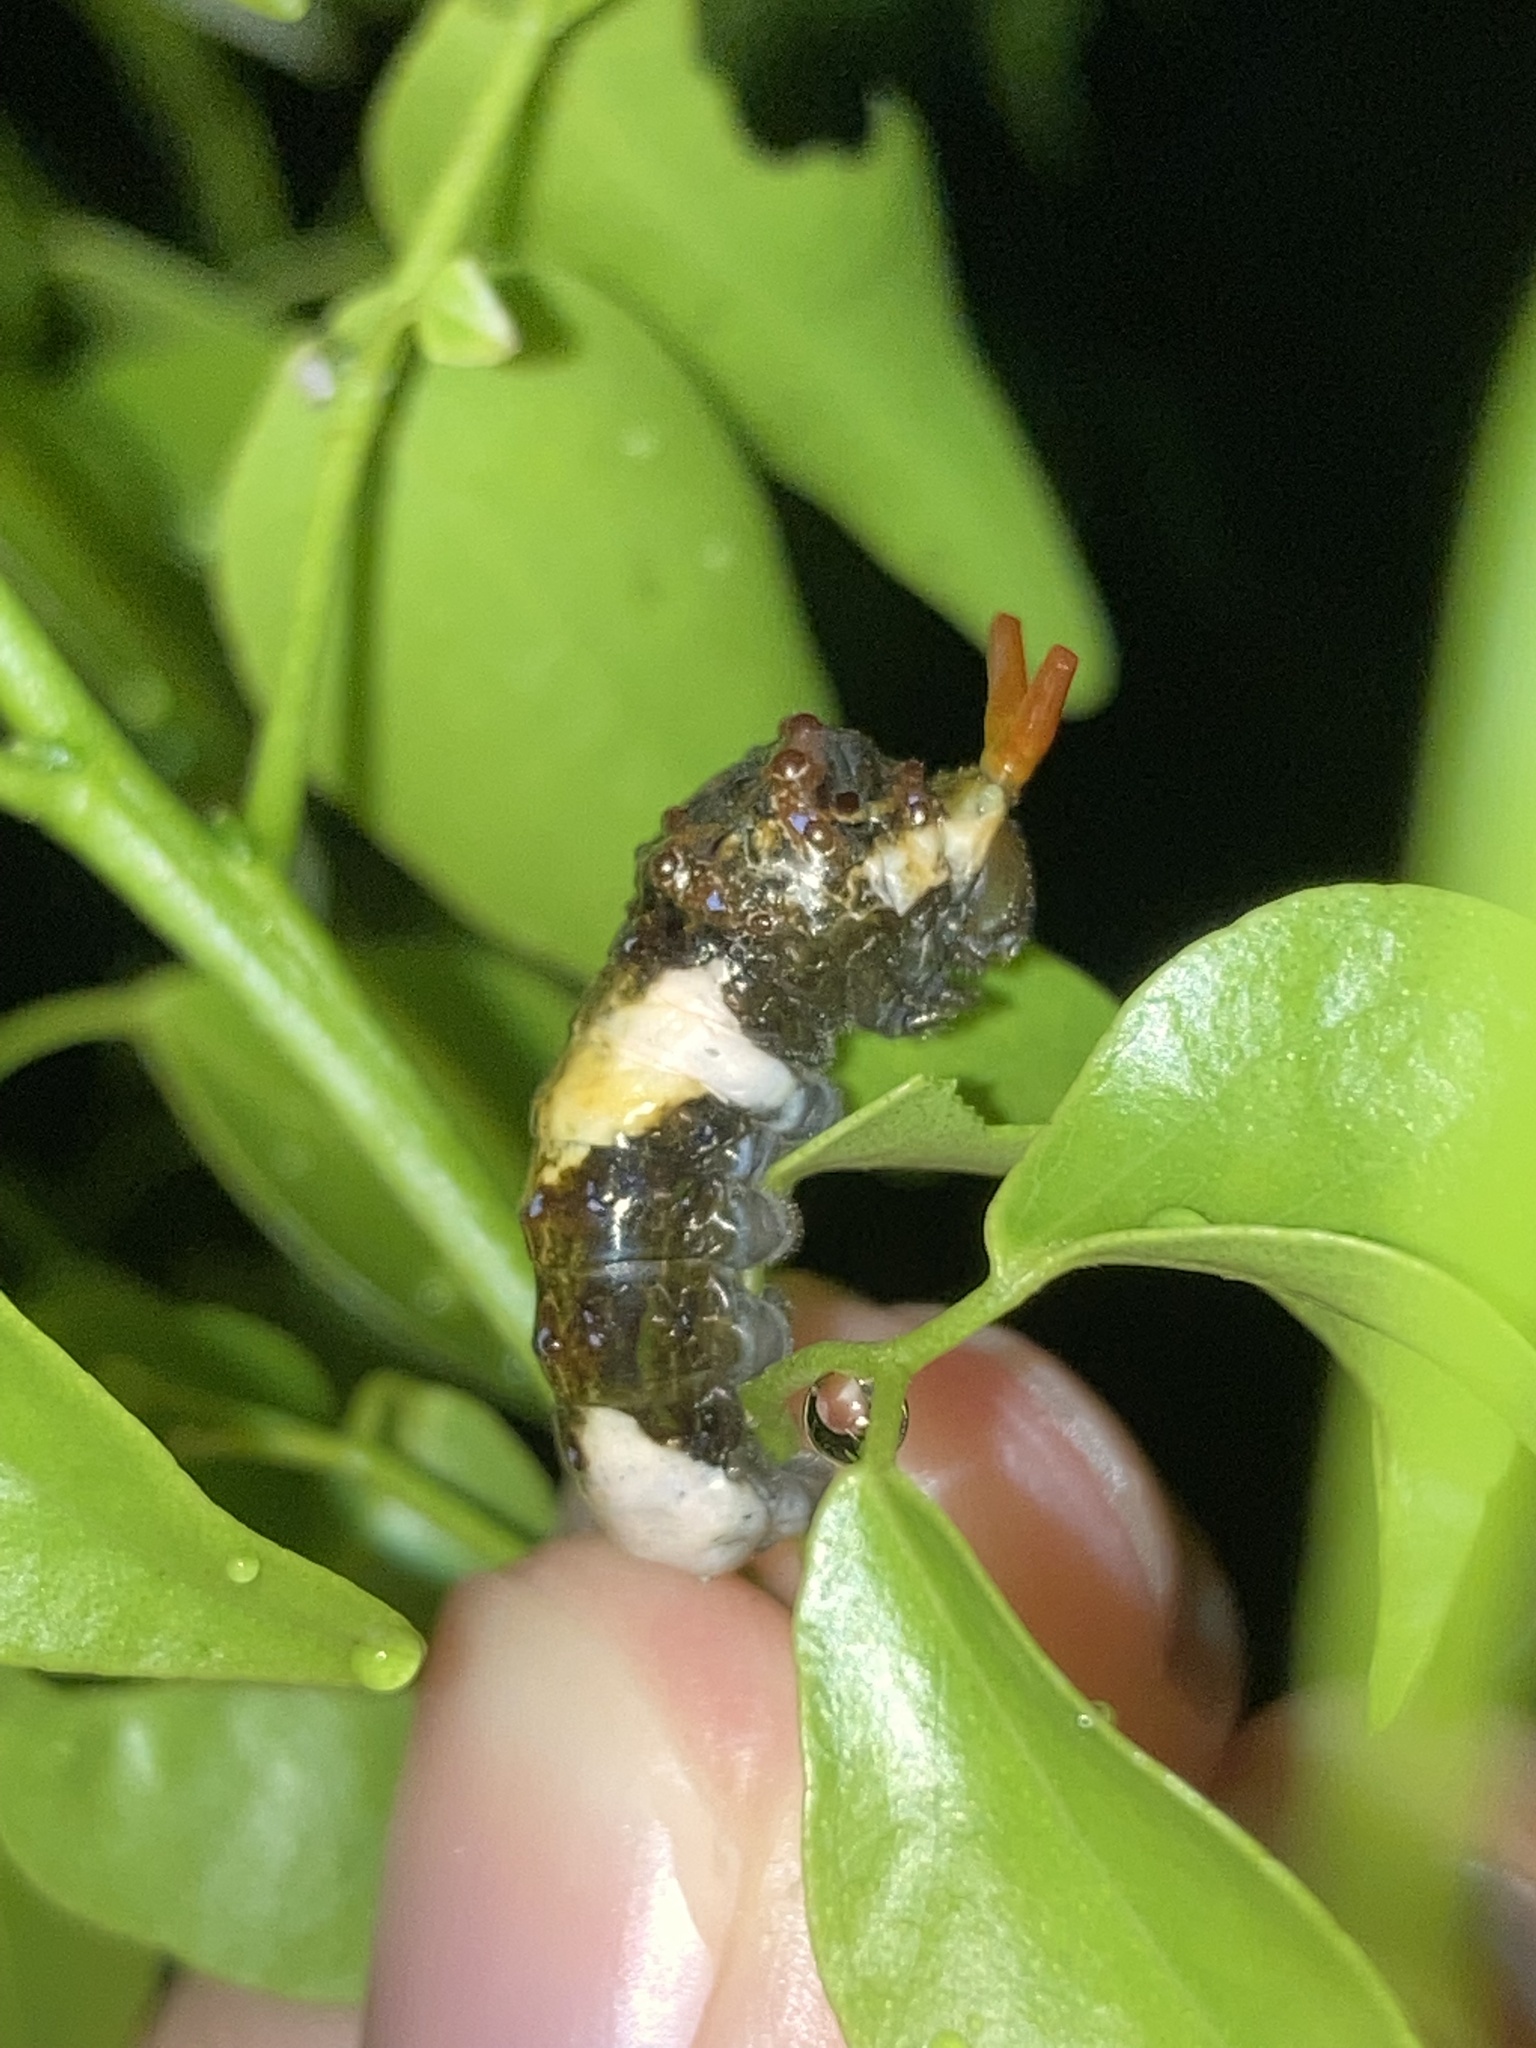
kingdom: Animalia
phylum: Arthropoda
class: Insecta
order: Lepidoptera
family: Papilionidae
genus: Papilio
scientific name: Papilio cresphontes
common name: Giant swallowtail
